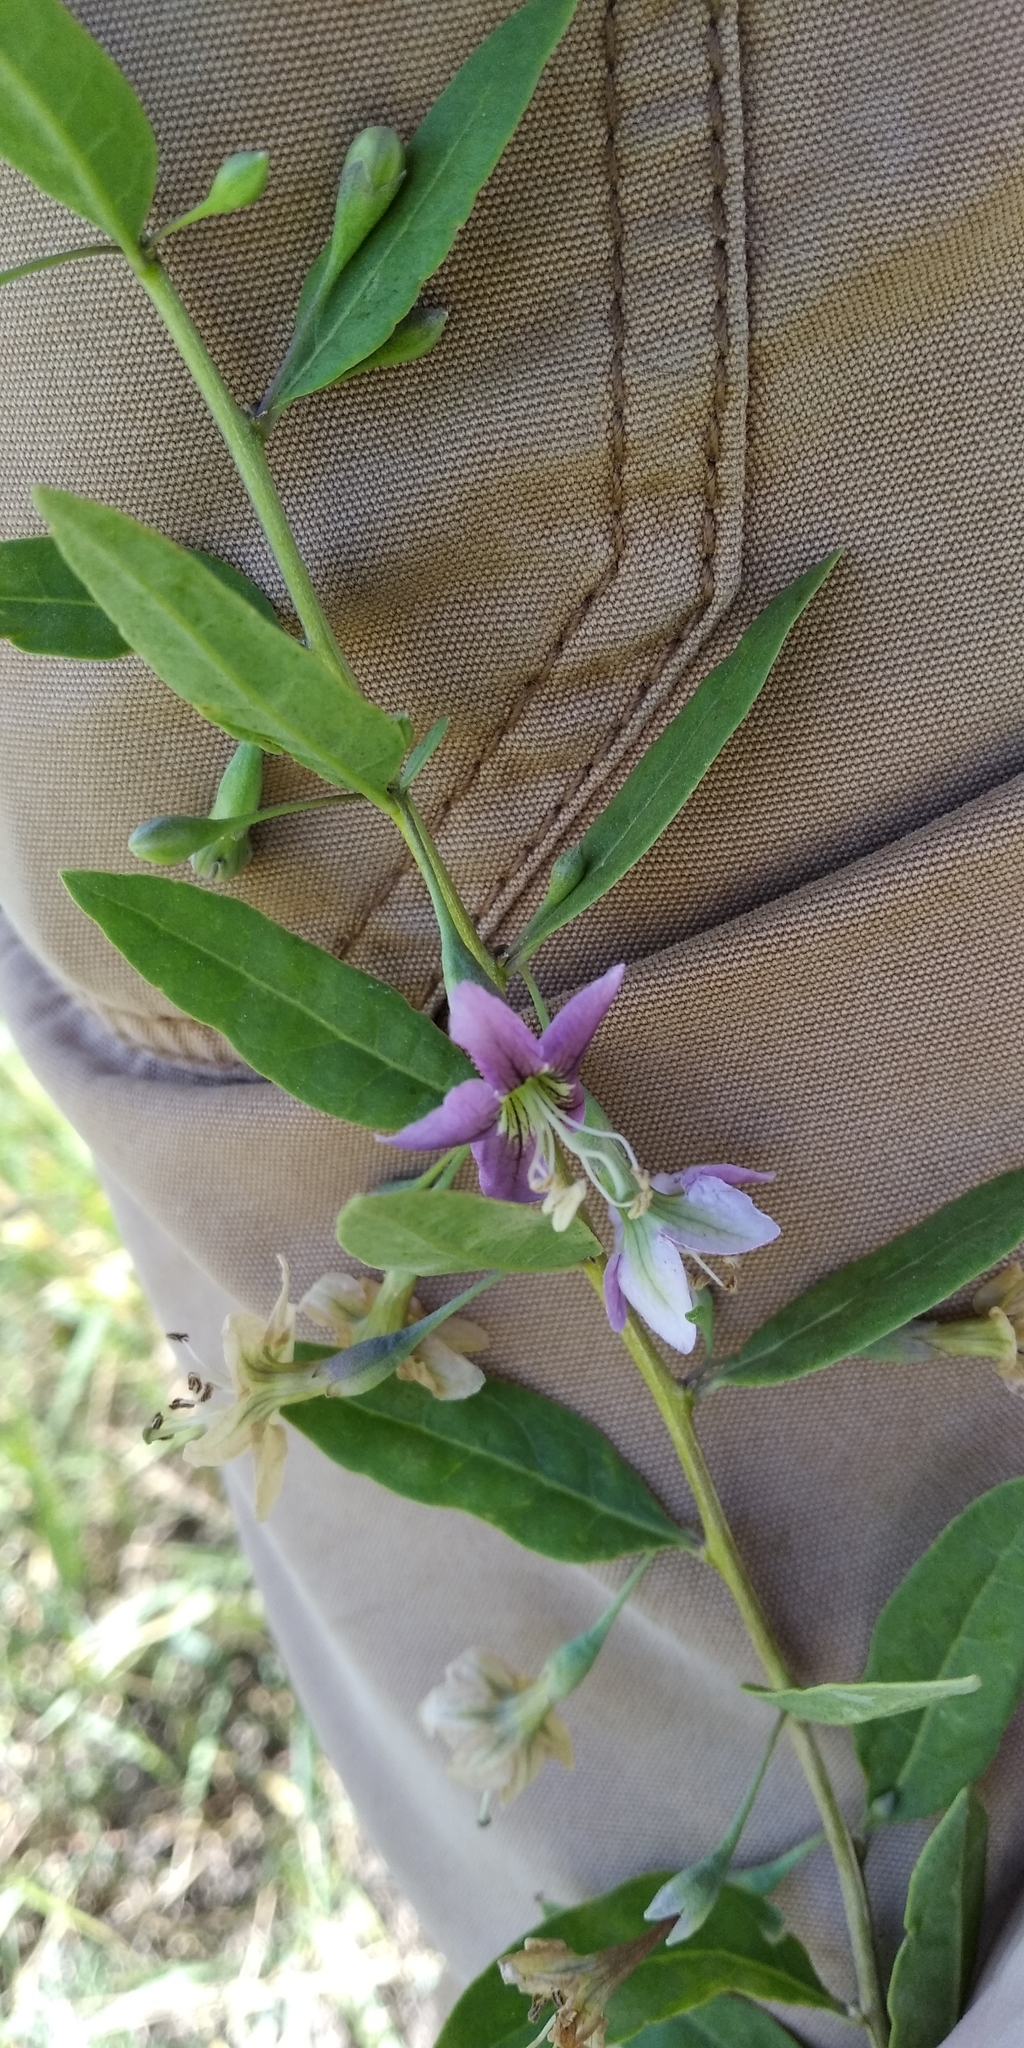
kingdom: Plantae
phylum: Tracheophyta
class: Magnoliopsida
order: Solanales
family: Solanaceae
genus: Lycium
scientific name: Lycium barbarum
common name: Duke of argyll's teaplant
